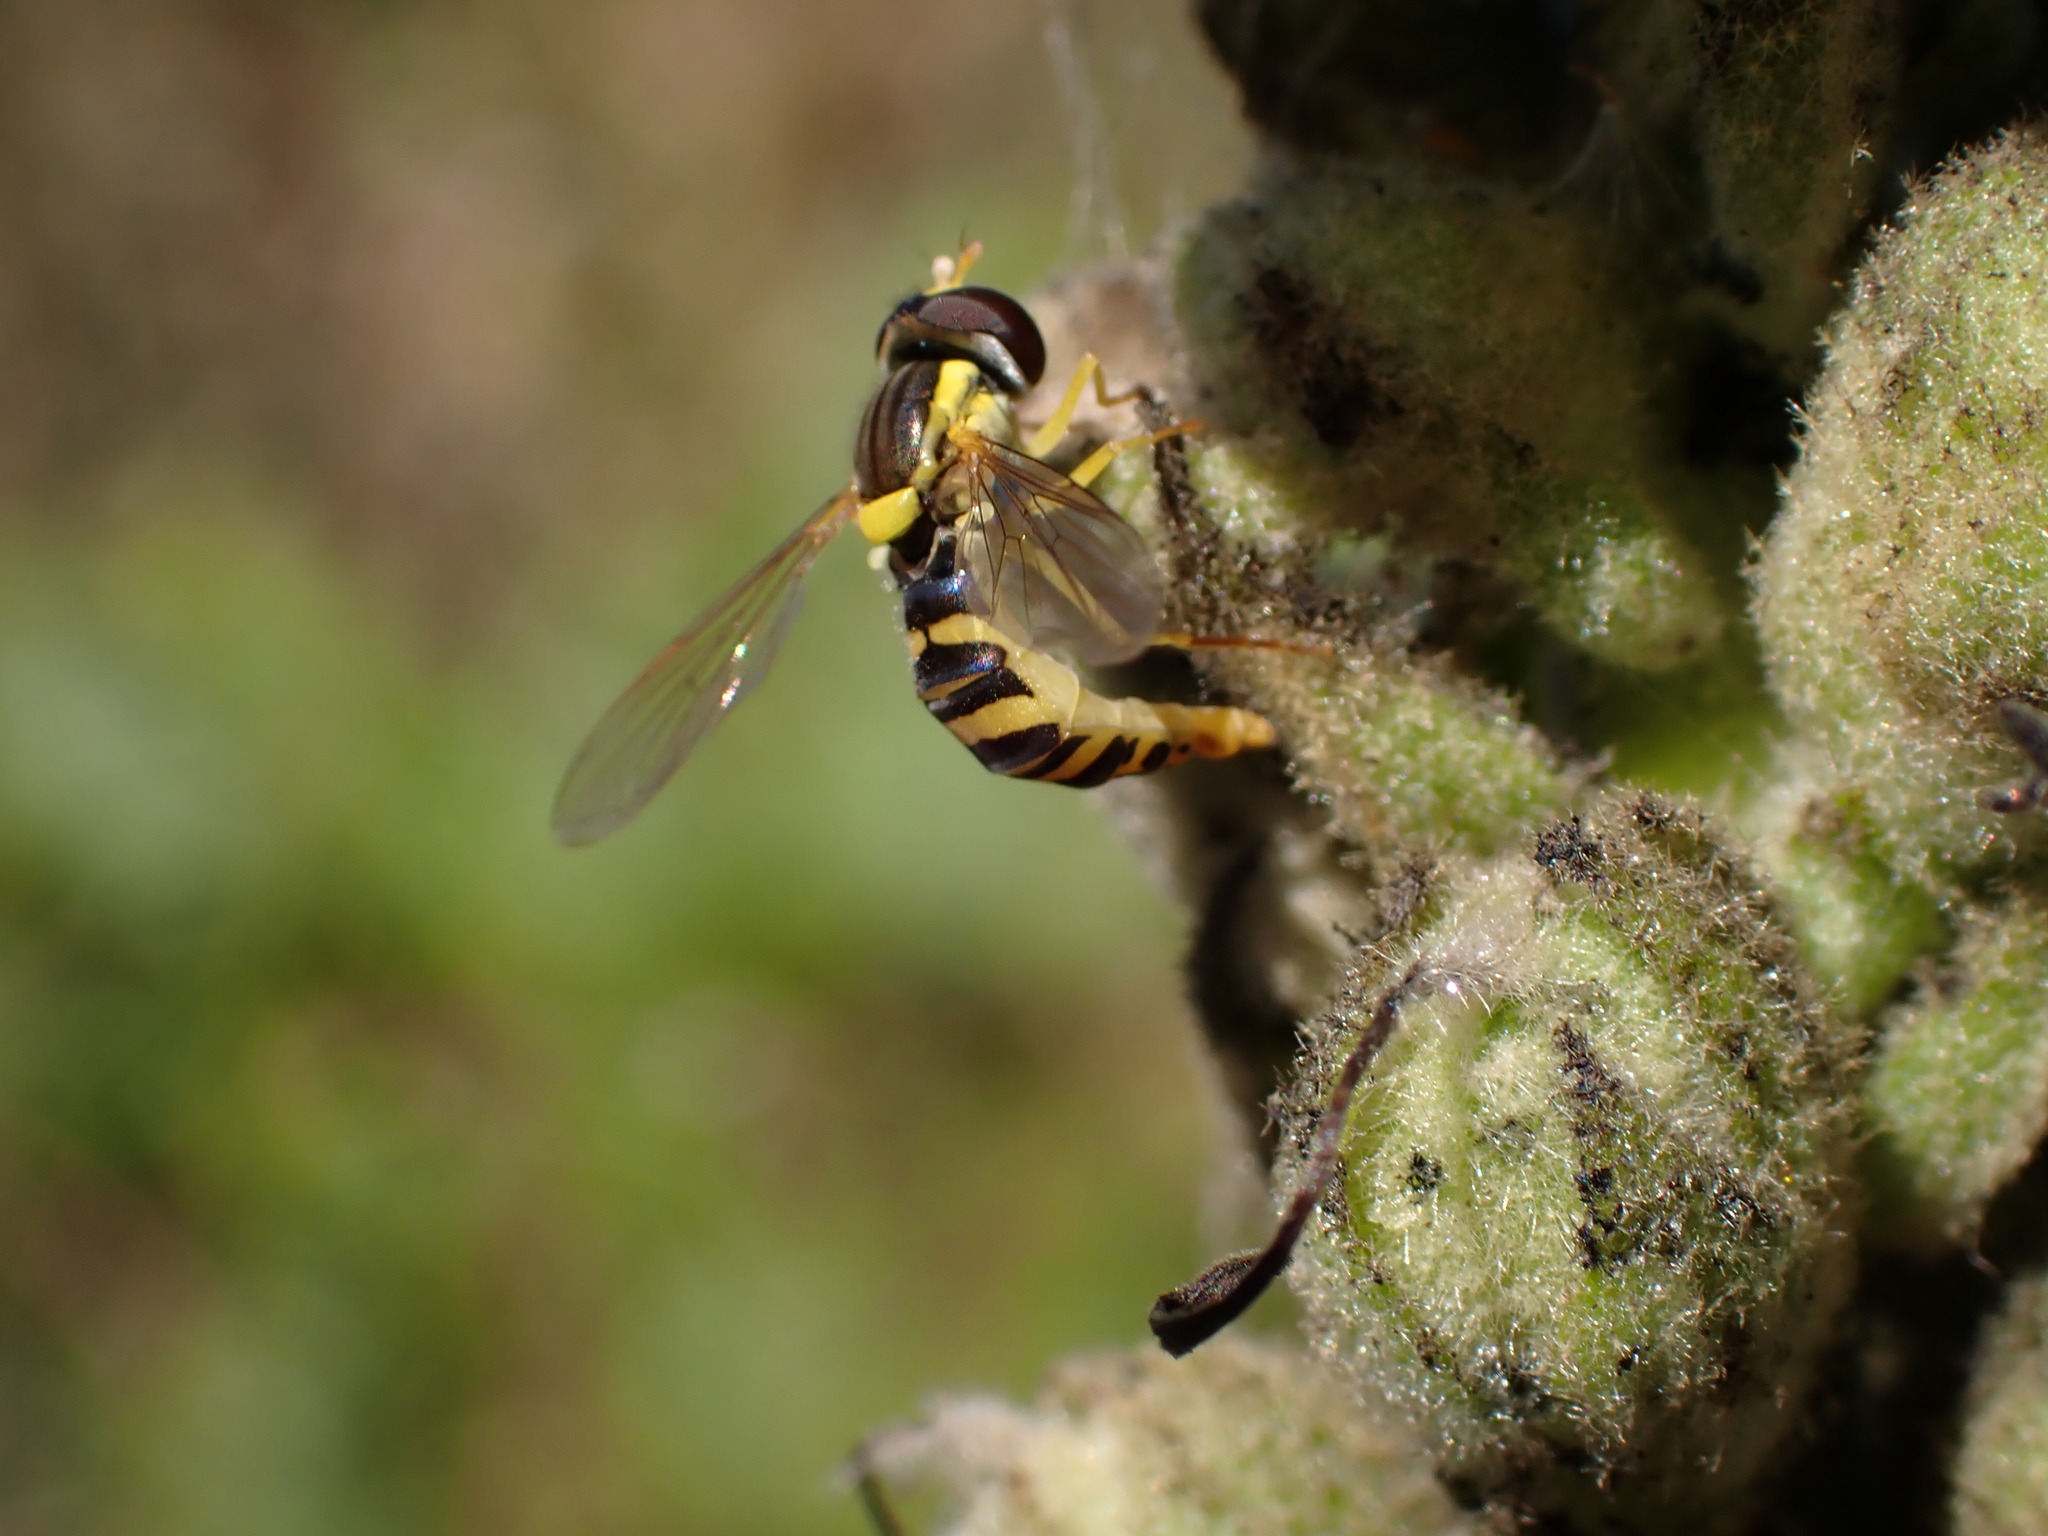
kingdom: Animalia
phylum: Arthropoda
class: Insecta
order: Diptera
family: Syrphidae
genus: Sphaerophoria
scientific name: Sphaerophoria
